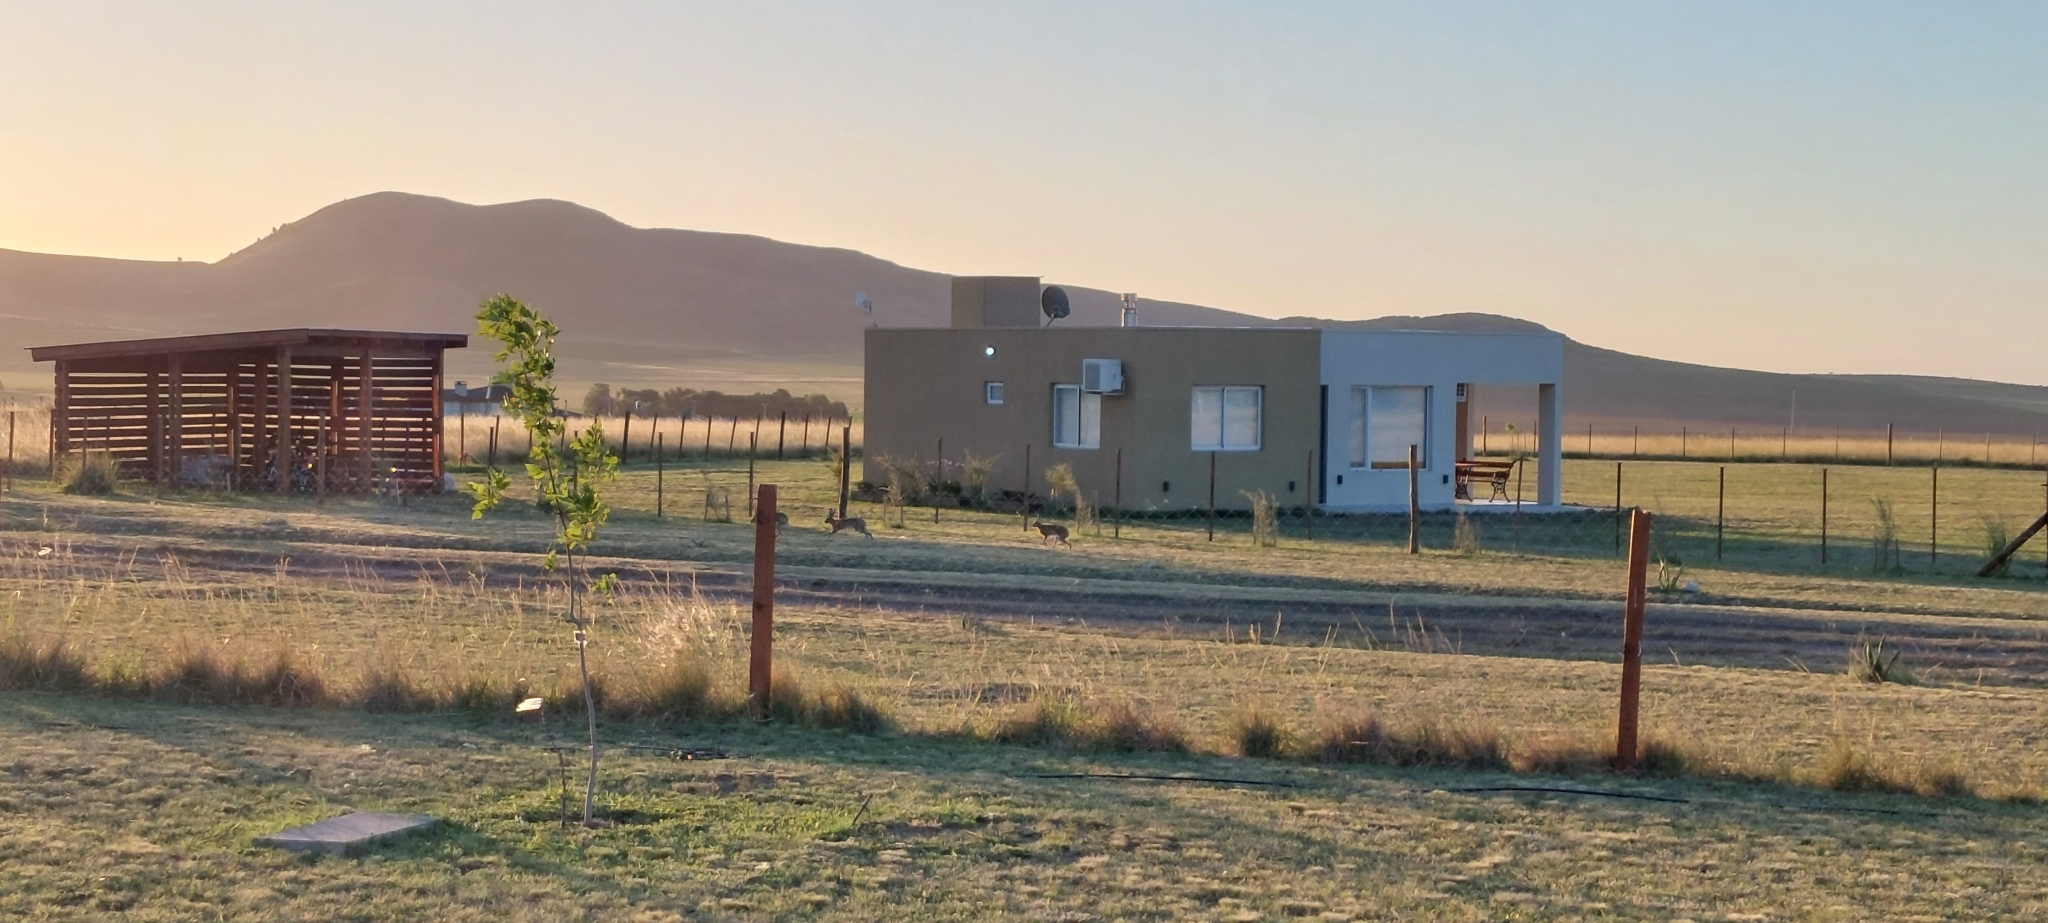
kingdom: Animalia
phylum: Chordata
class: Mammalia
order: Lagomorpha
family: Leporidae
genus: Lepus
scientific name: Lepus europaeus
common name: European hare
